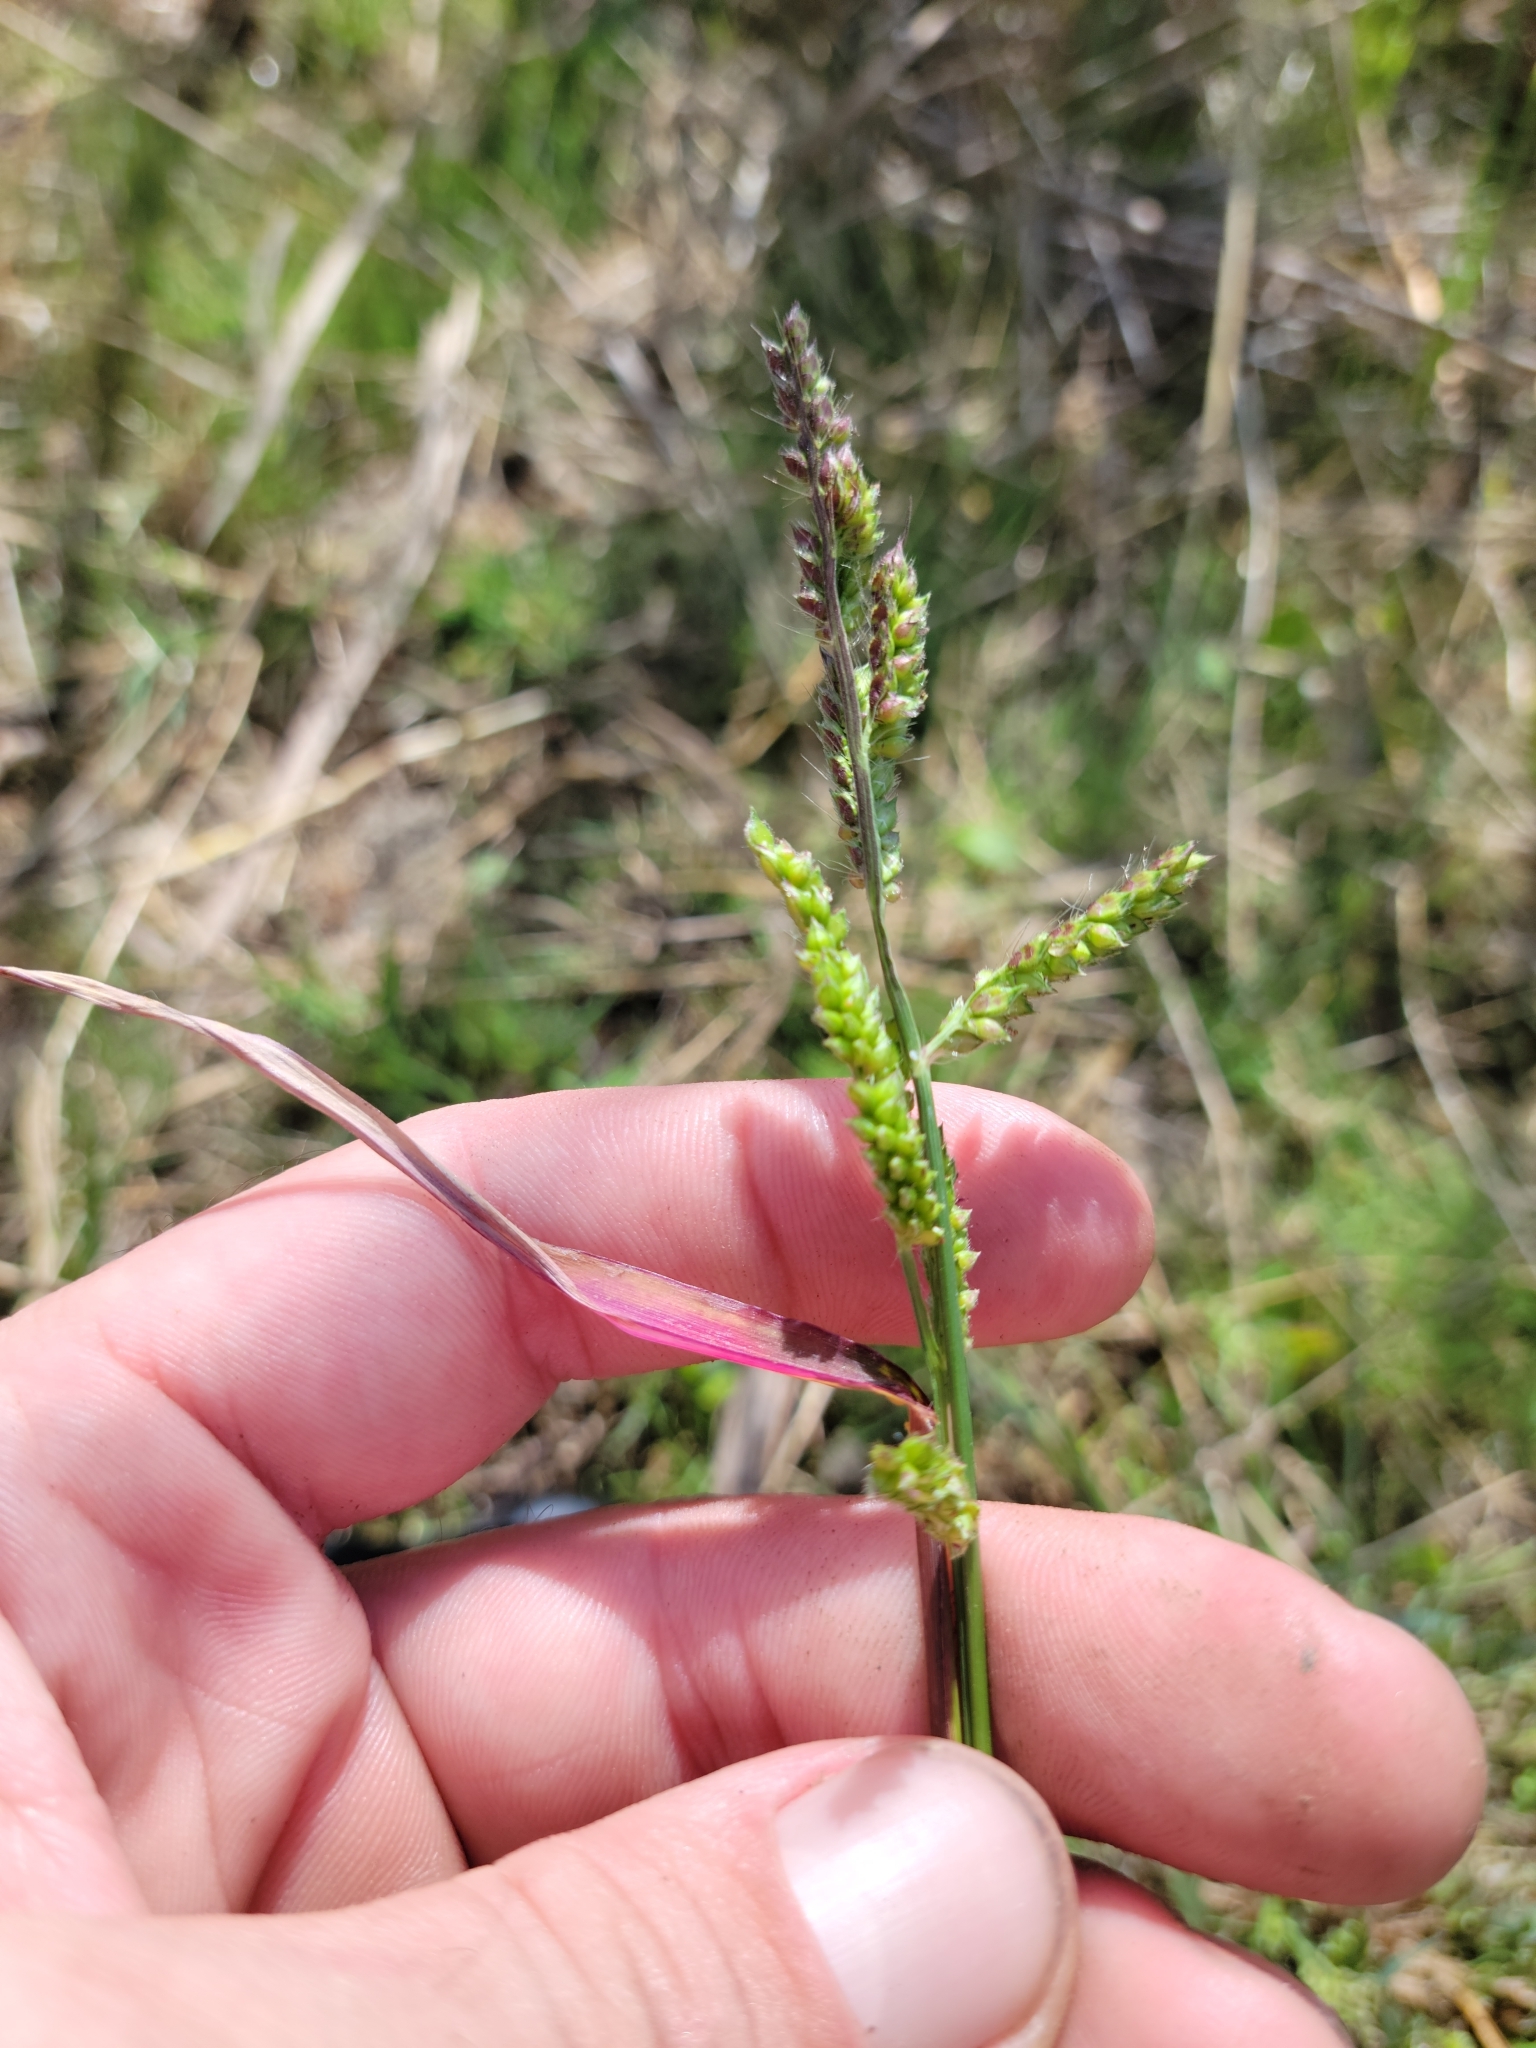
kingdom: Plantae
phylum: Tracheophyta
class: Liliopsida
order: Poales
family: Poaceae
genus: Echinochloa
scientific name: Echinochloa crus-galli
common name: Cockspur
